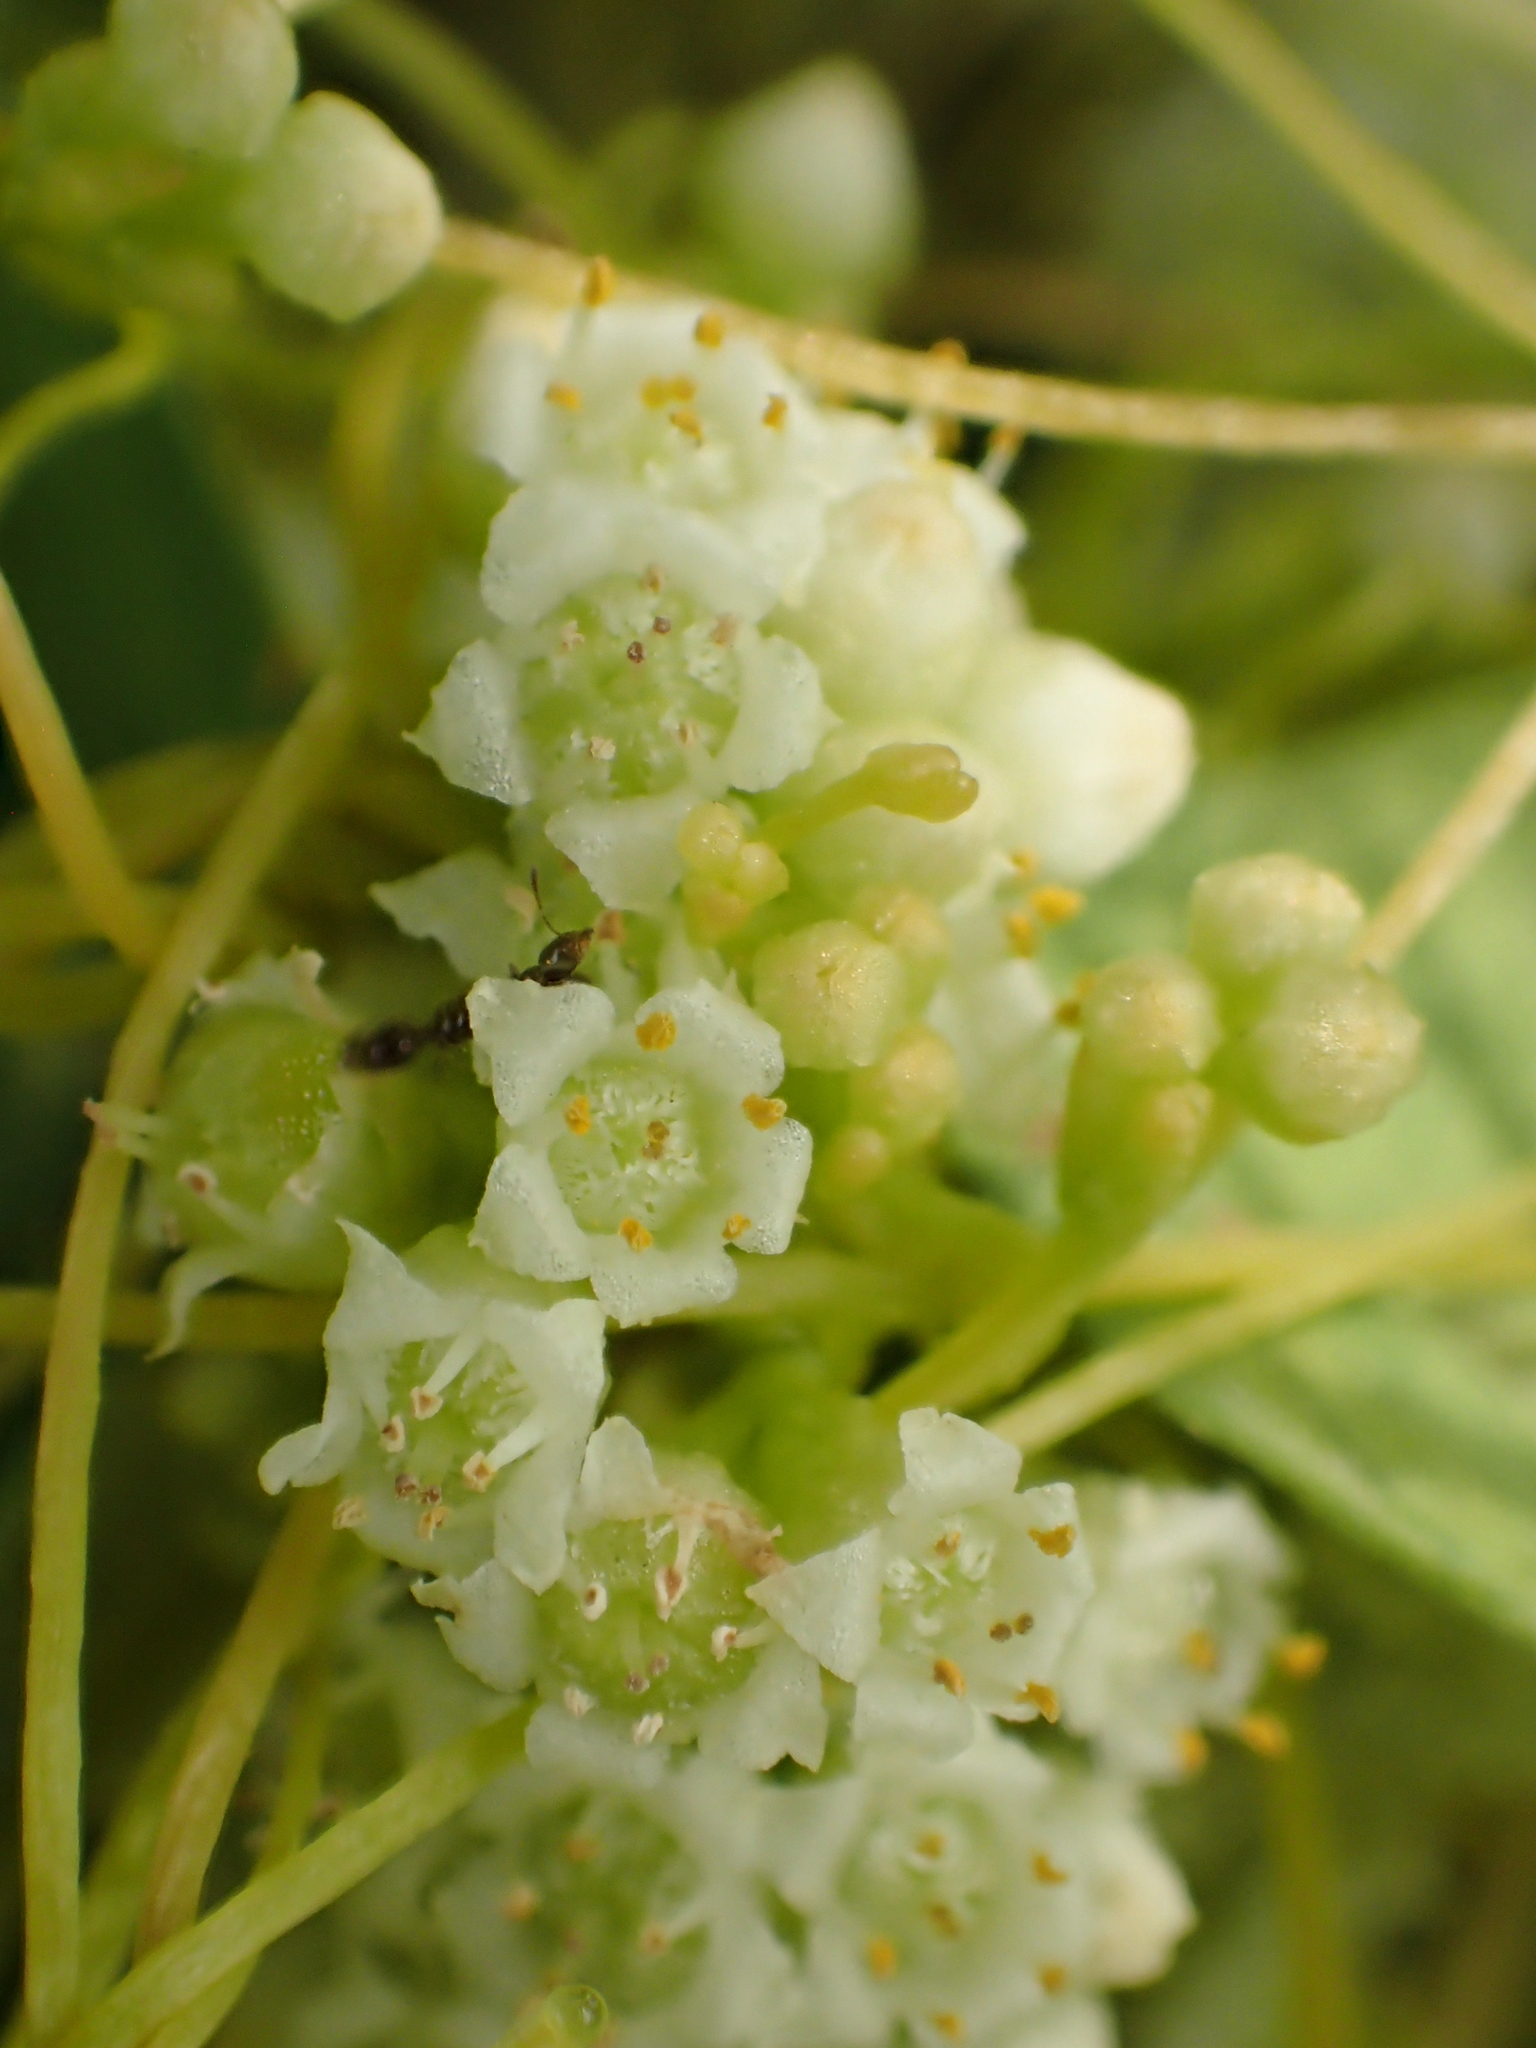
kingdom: Plantae
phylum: Tracheophyta
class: Magnoliopsida
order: Solanales
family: Convolvulaceae
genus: Cuscuta
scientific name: Cuscuta campestris
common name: Yellow dodder
